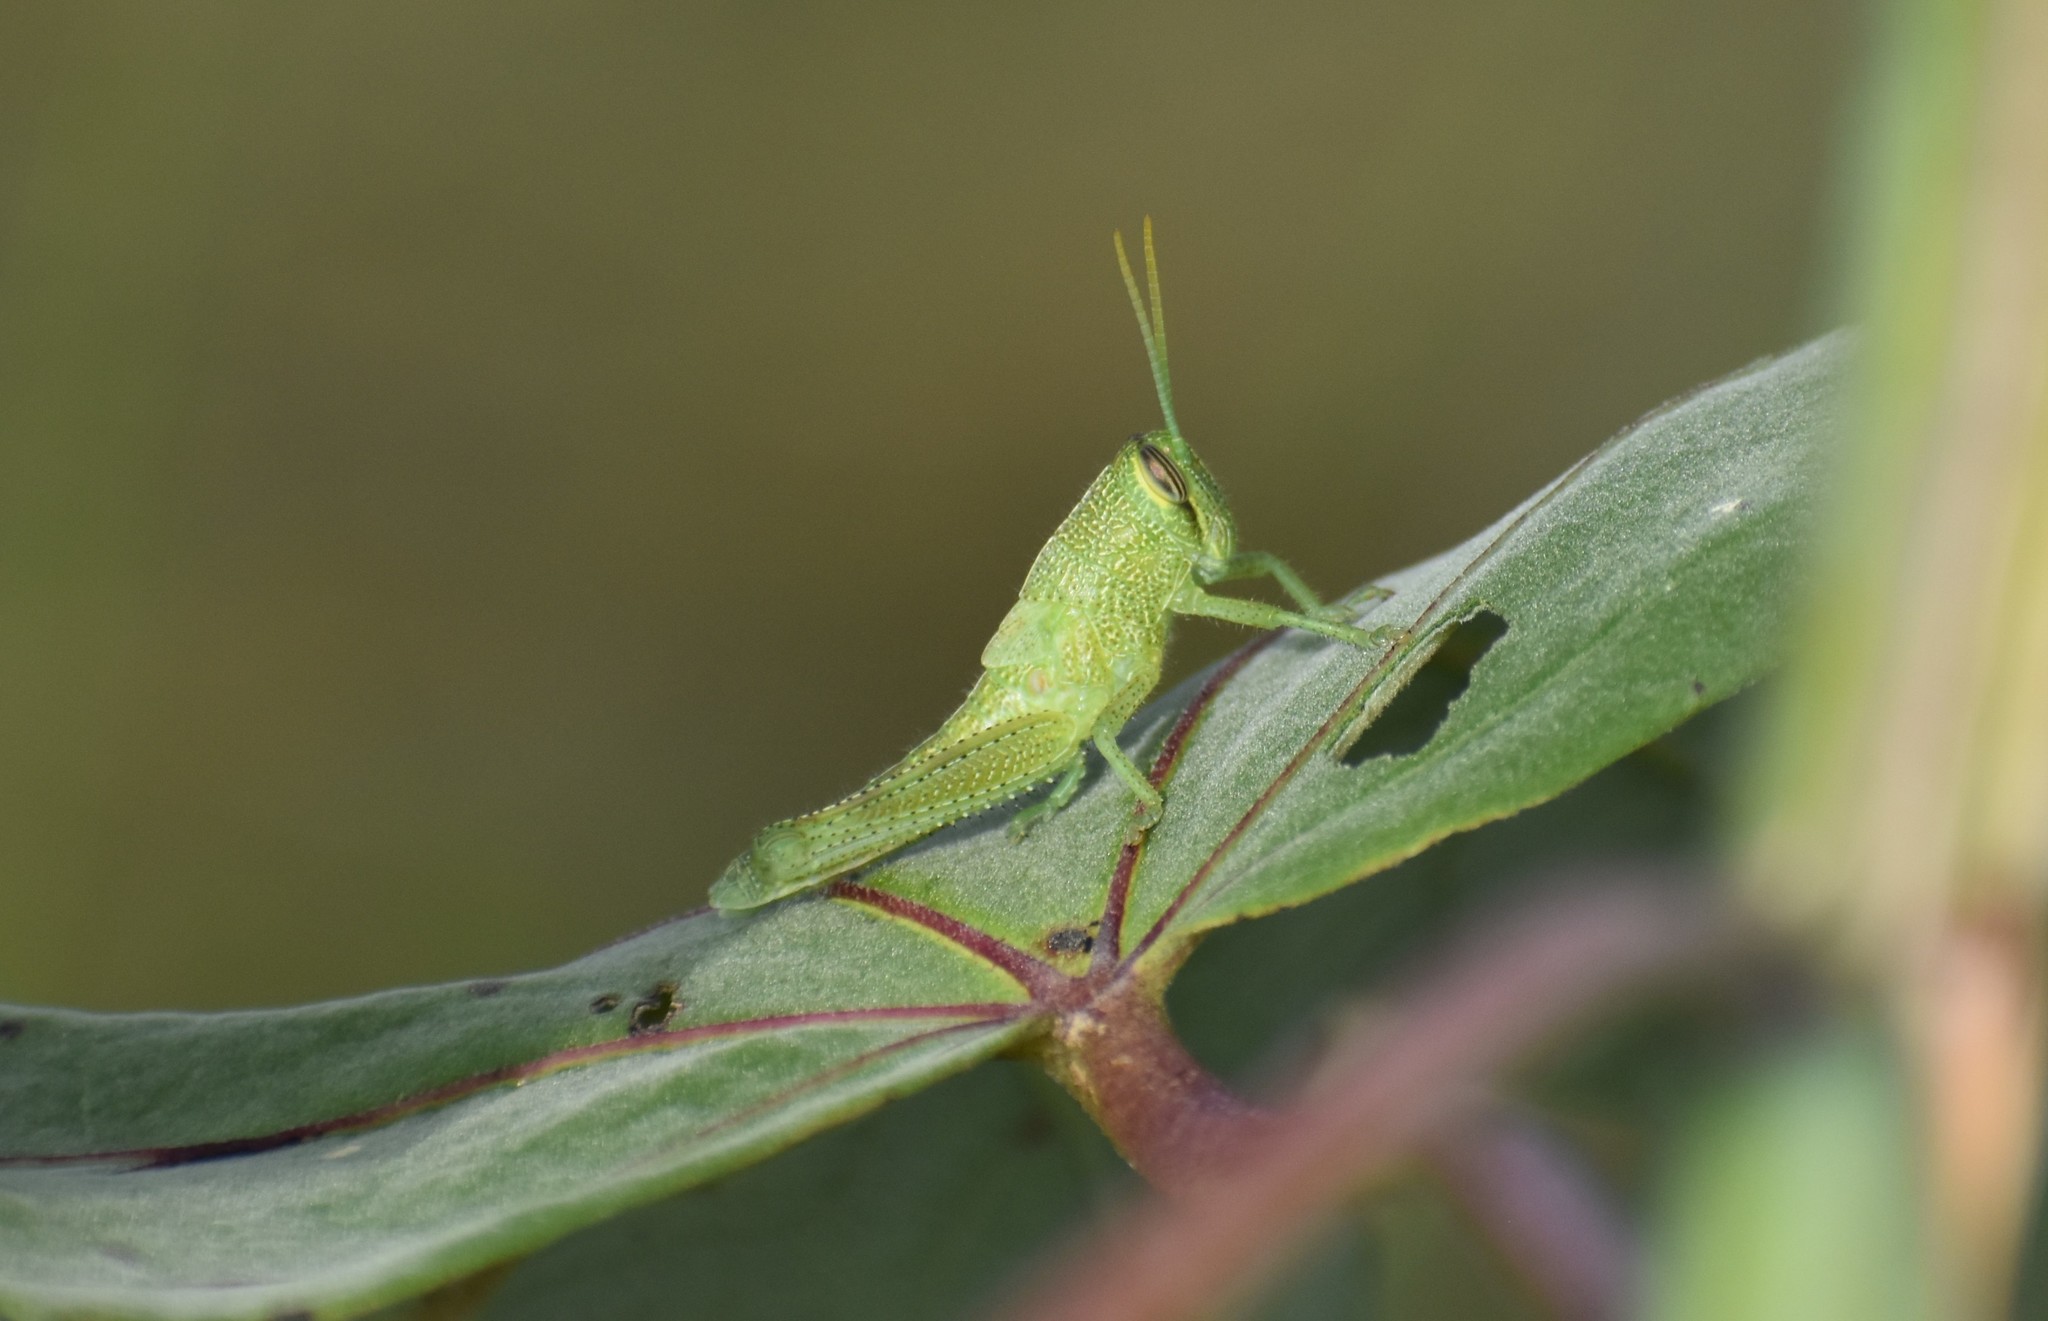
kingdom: Animalia
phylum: Arthropoda
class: Insecta
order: Orthoptera
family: Acrididae
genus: Schistocerca
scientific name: Schistocerca obscura
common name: Obscure bird grasshopper
